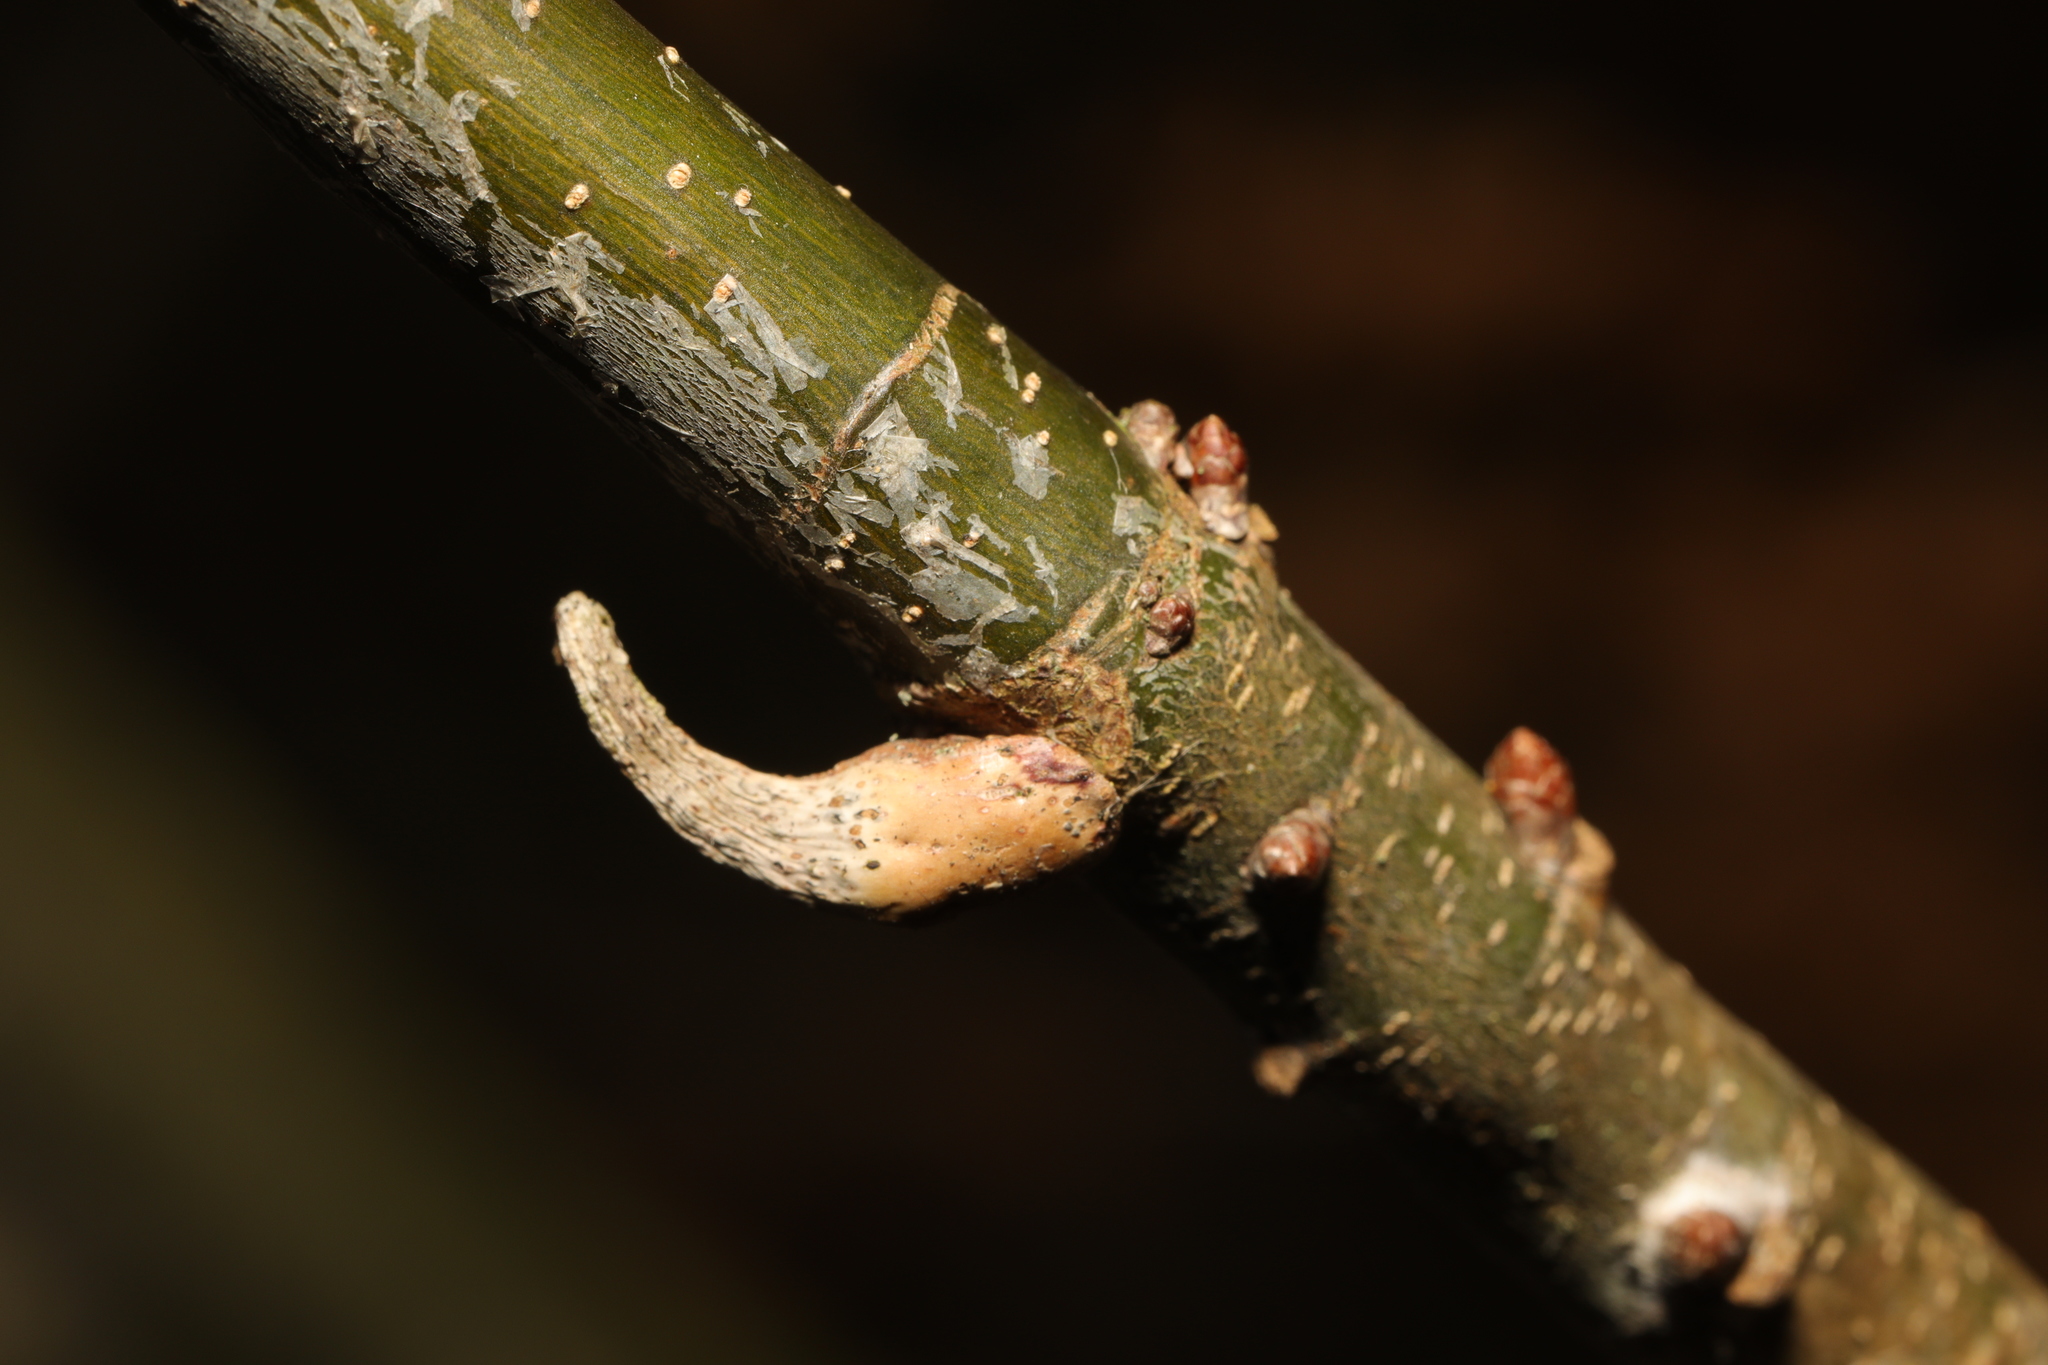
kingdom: Animalia
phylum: Arthropoda
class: Insecta
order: Hymenoptera
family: Cynipidae
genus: Andricus
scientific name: Andricus solitarius
